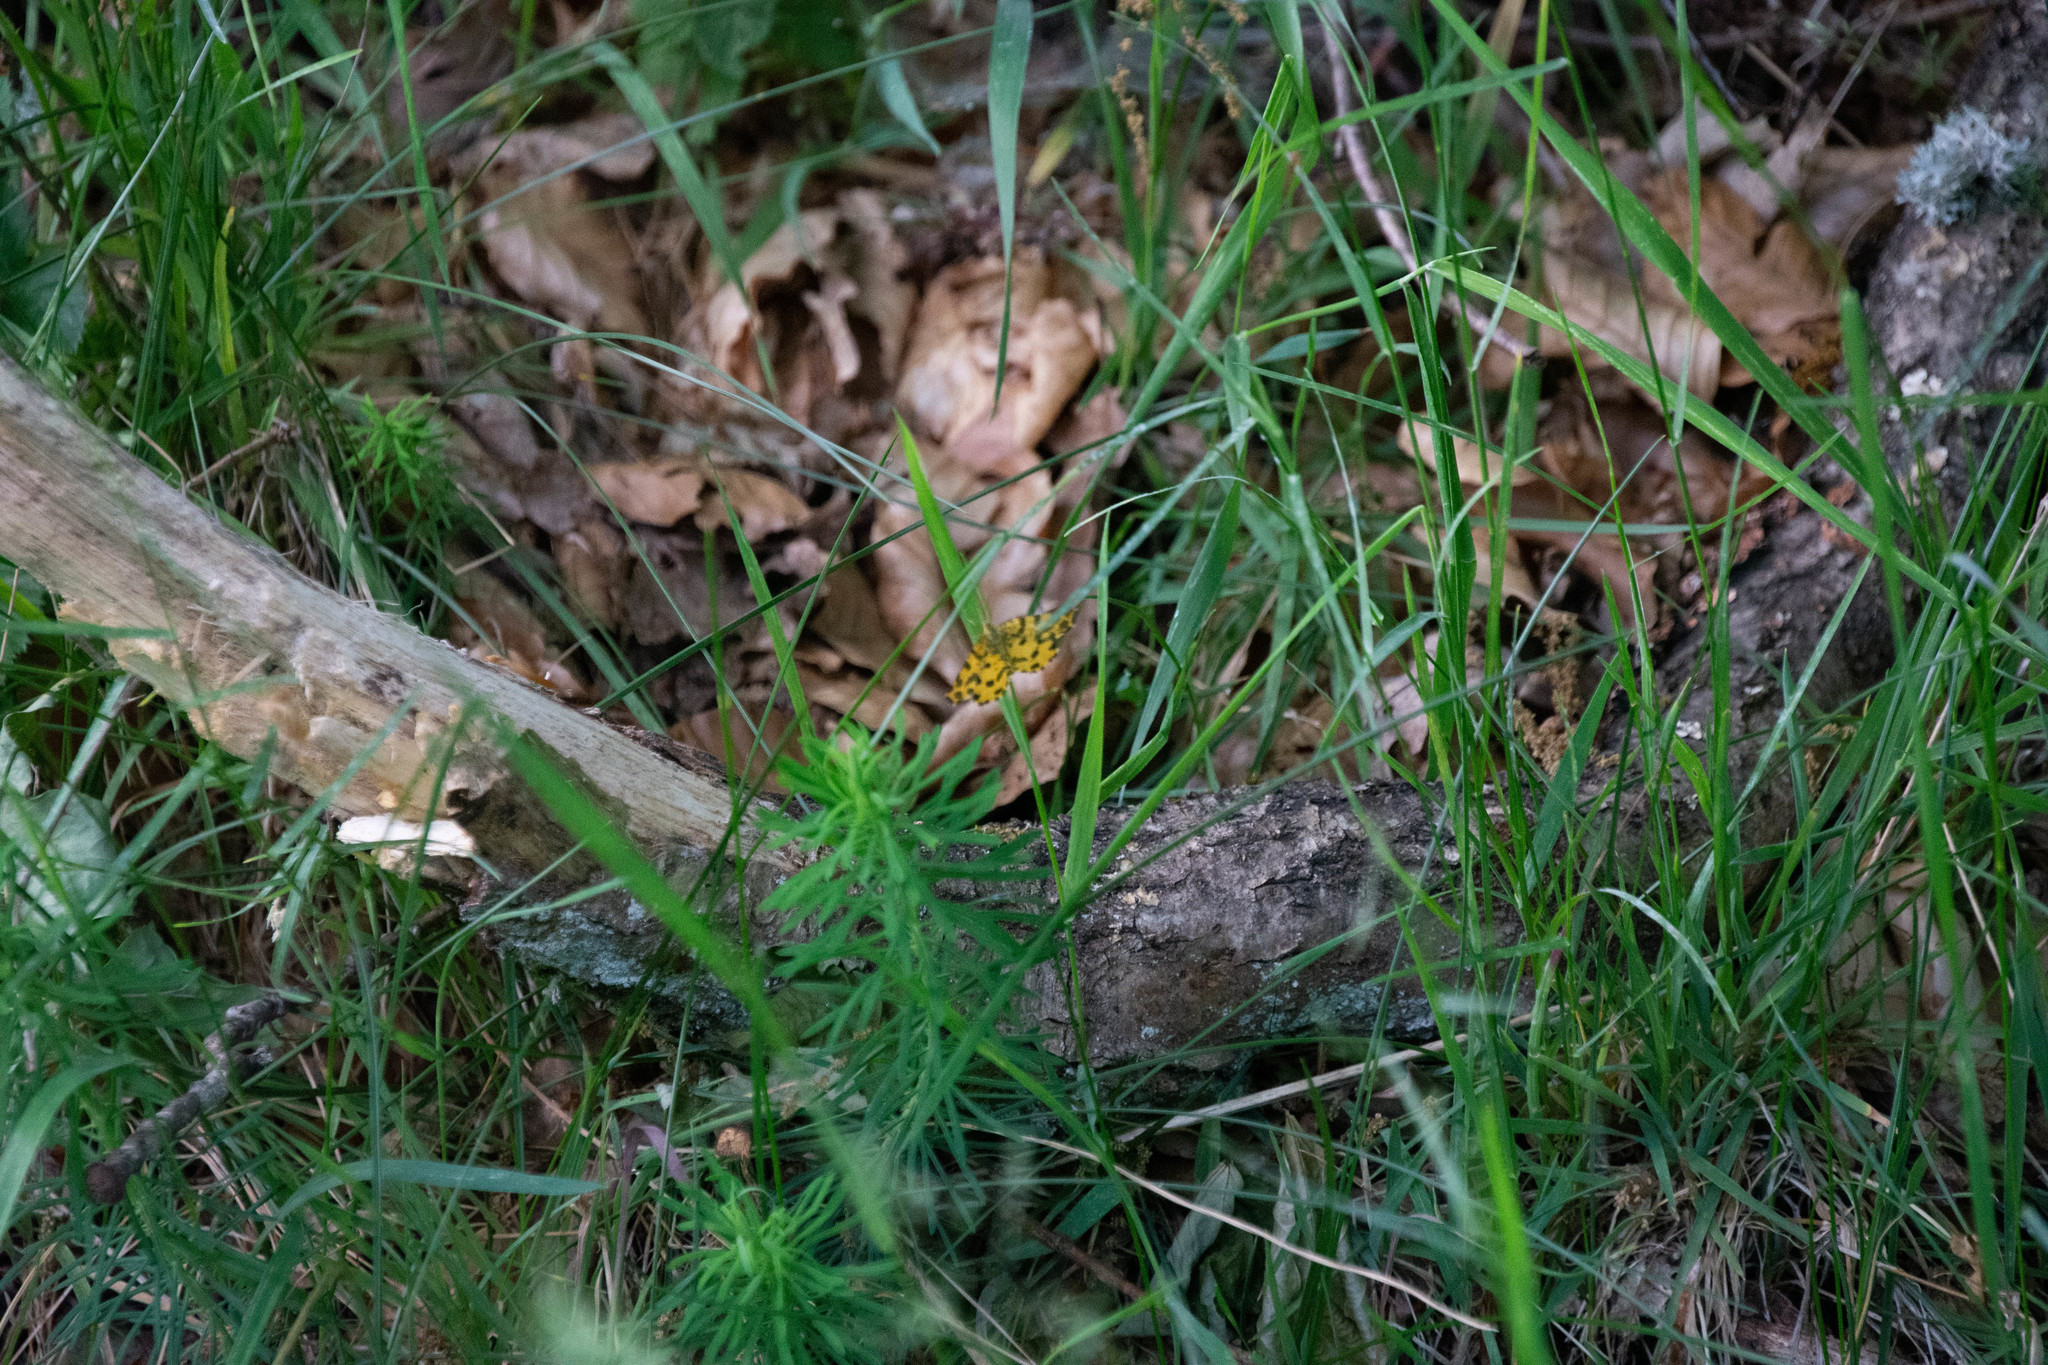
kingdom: Animalia
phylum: Arthropoda
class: Insecta
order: Lepidoptera
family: Geometridae
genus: Pseudopanthera
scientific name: Pseudopanthera macularia
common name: Speckled yellow
